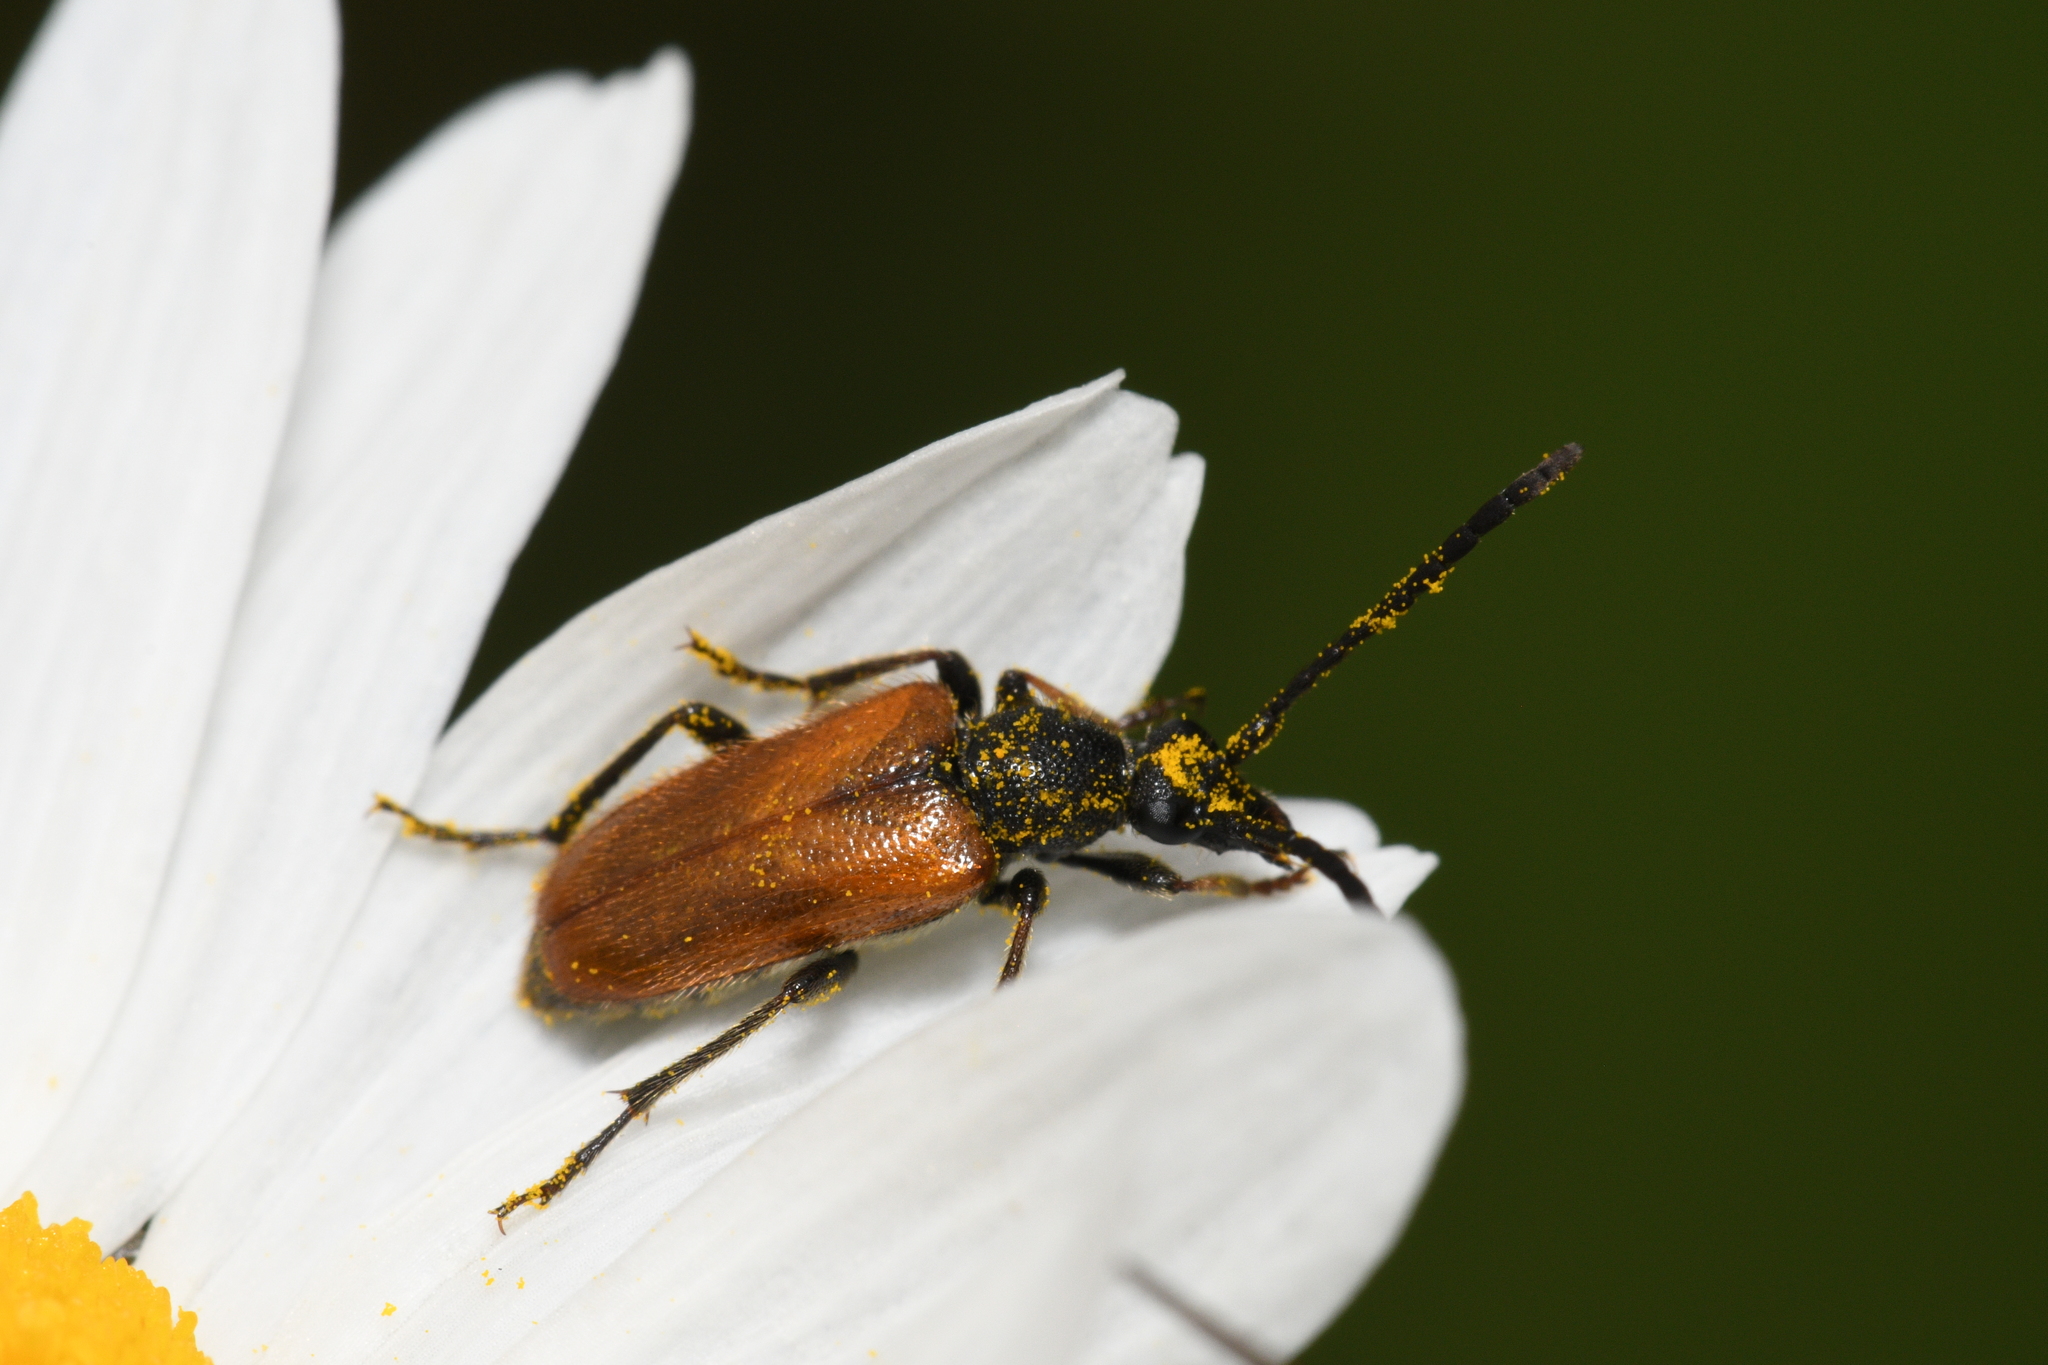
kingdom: Animalia
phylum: Arthropoda
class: Insecta
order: Coleoptera
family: Cerambycidae
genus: Pseudovadonia
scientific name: Pseudovadonia livida
